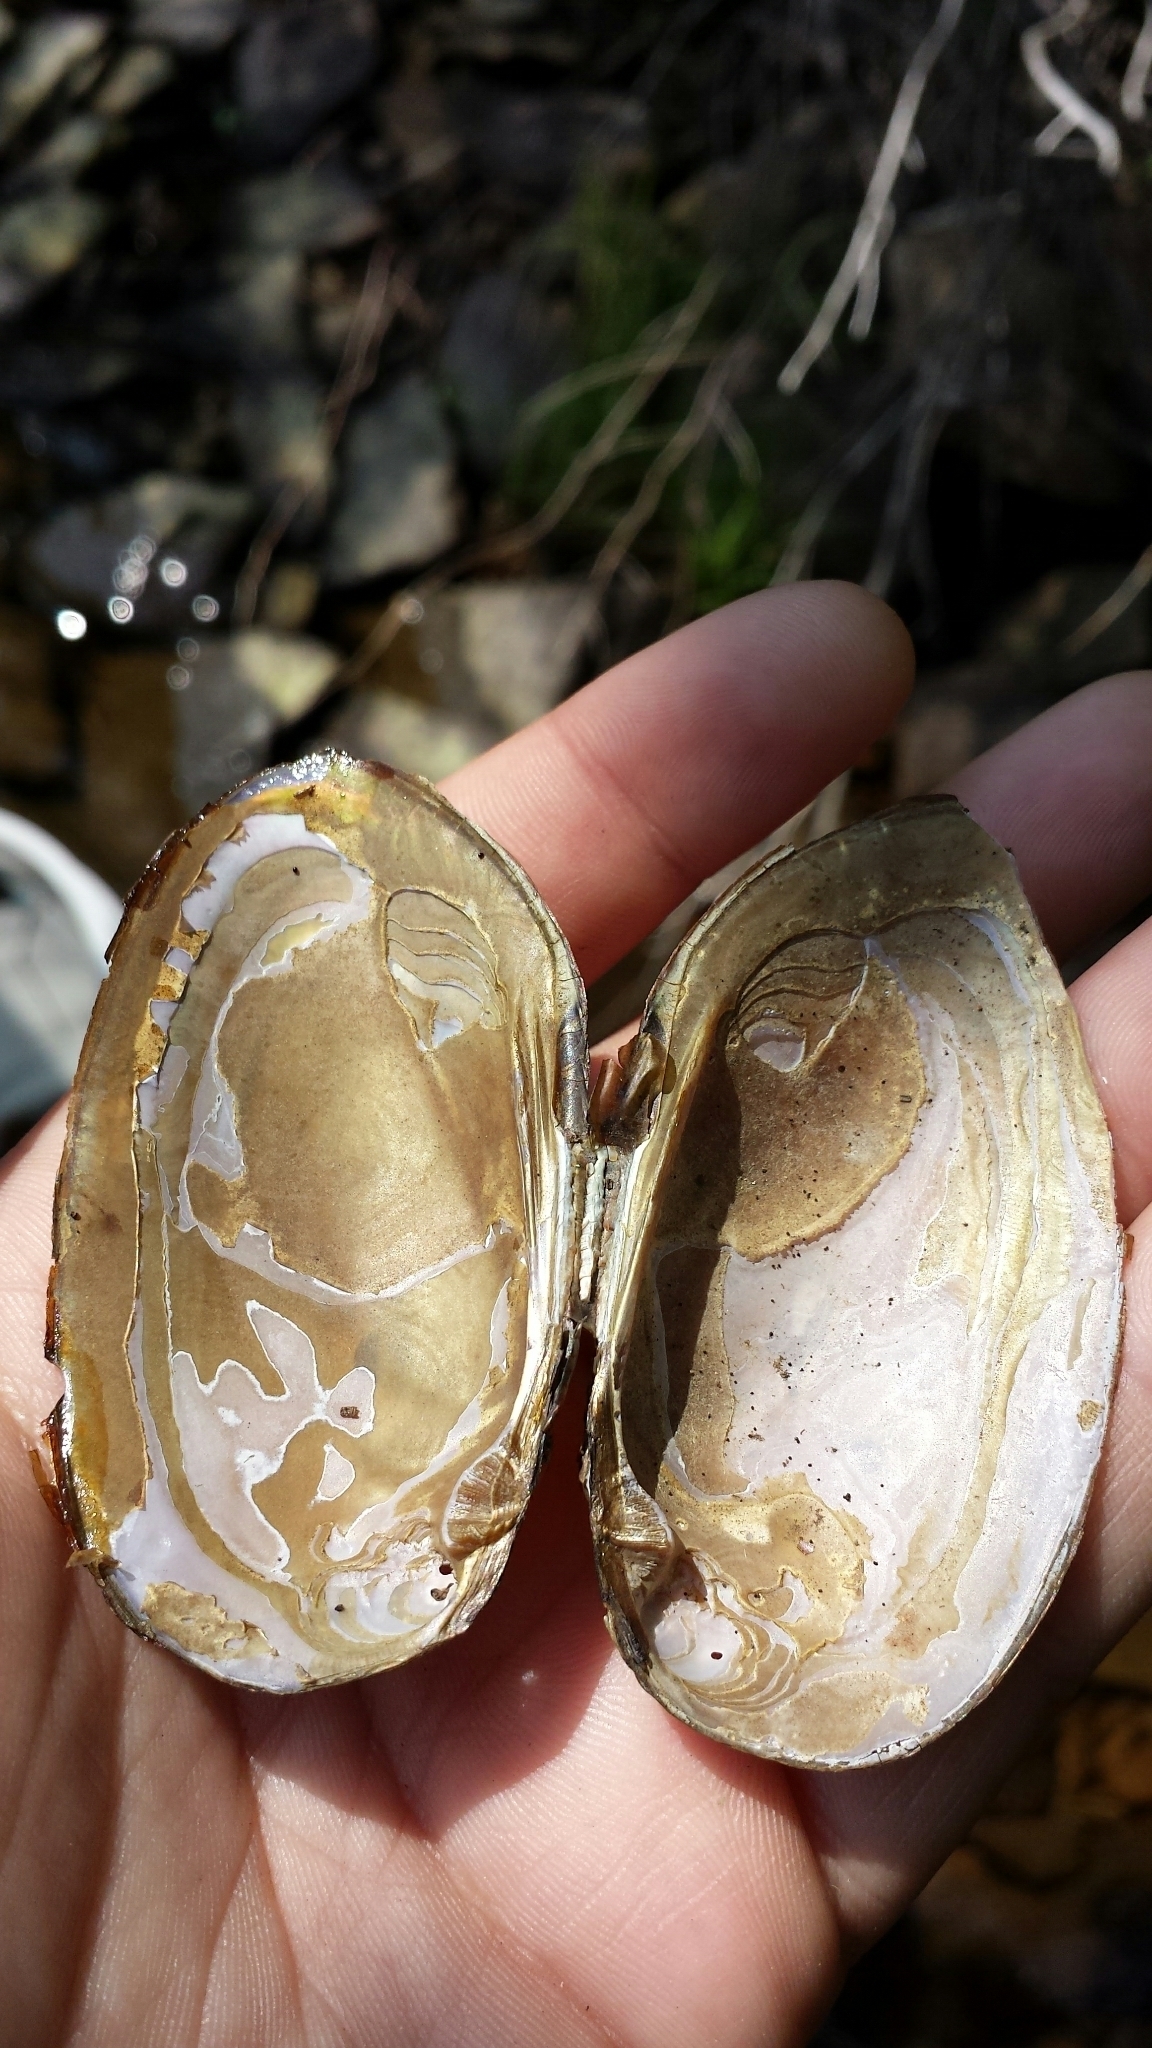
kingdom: Animalia
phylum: Mollusca
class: Bivalvia
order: Unionida
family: Unionidae
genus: Elliptio
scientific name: Elliptio complanata
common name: Eastern elliptio
